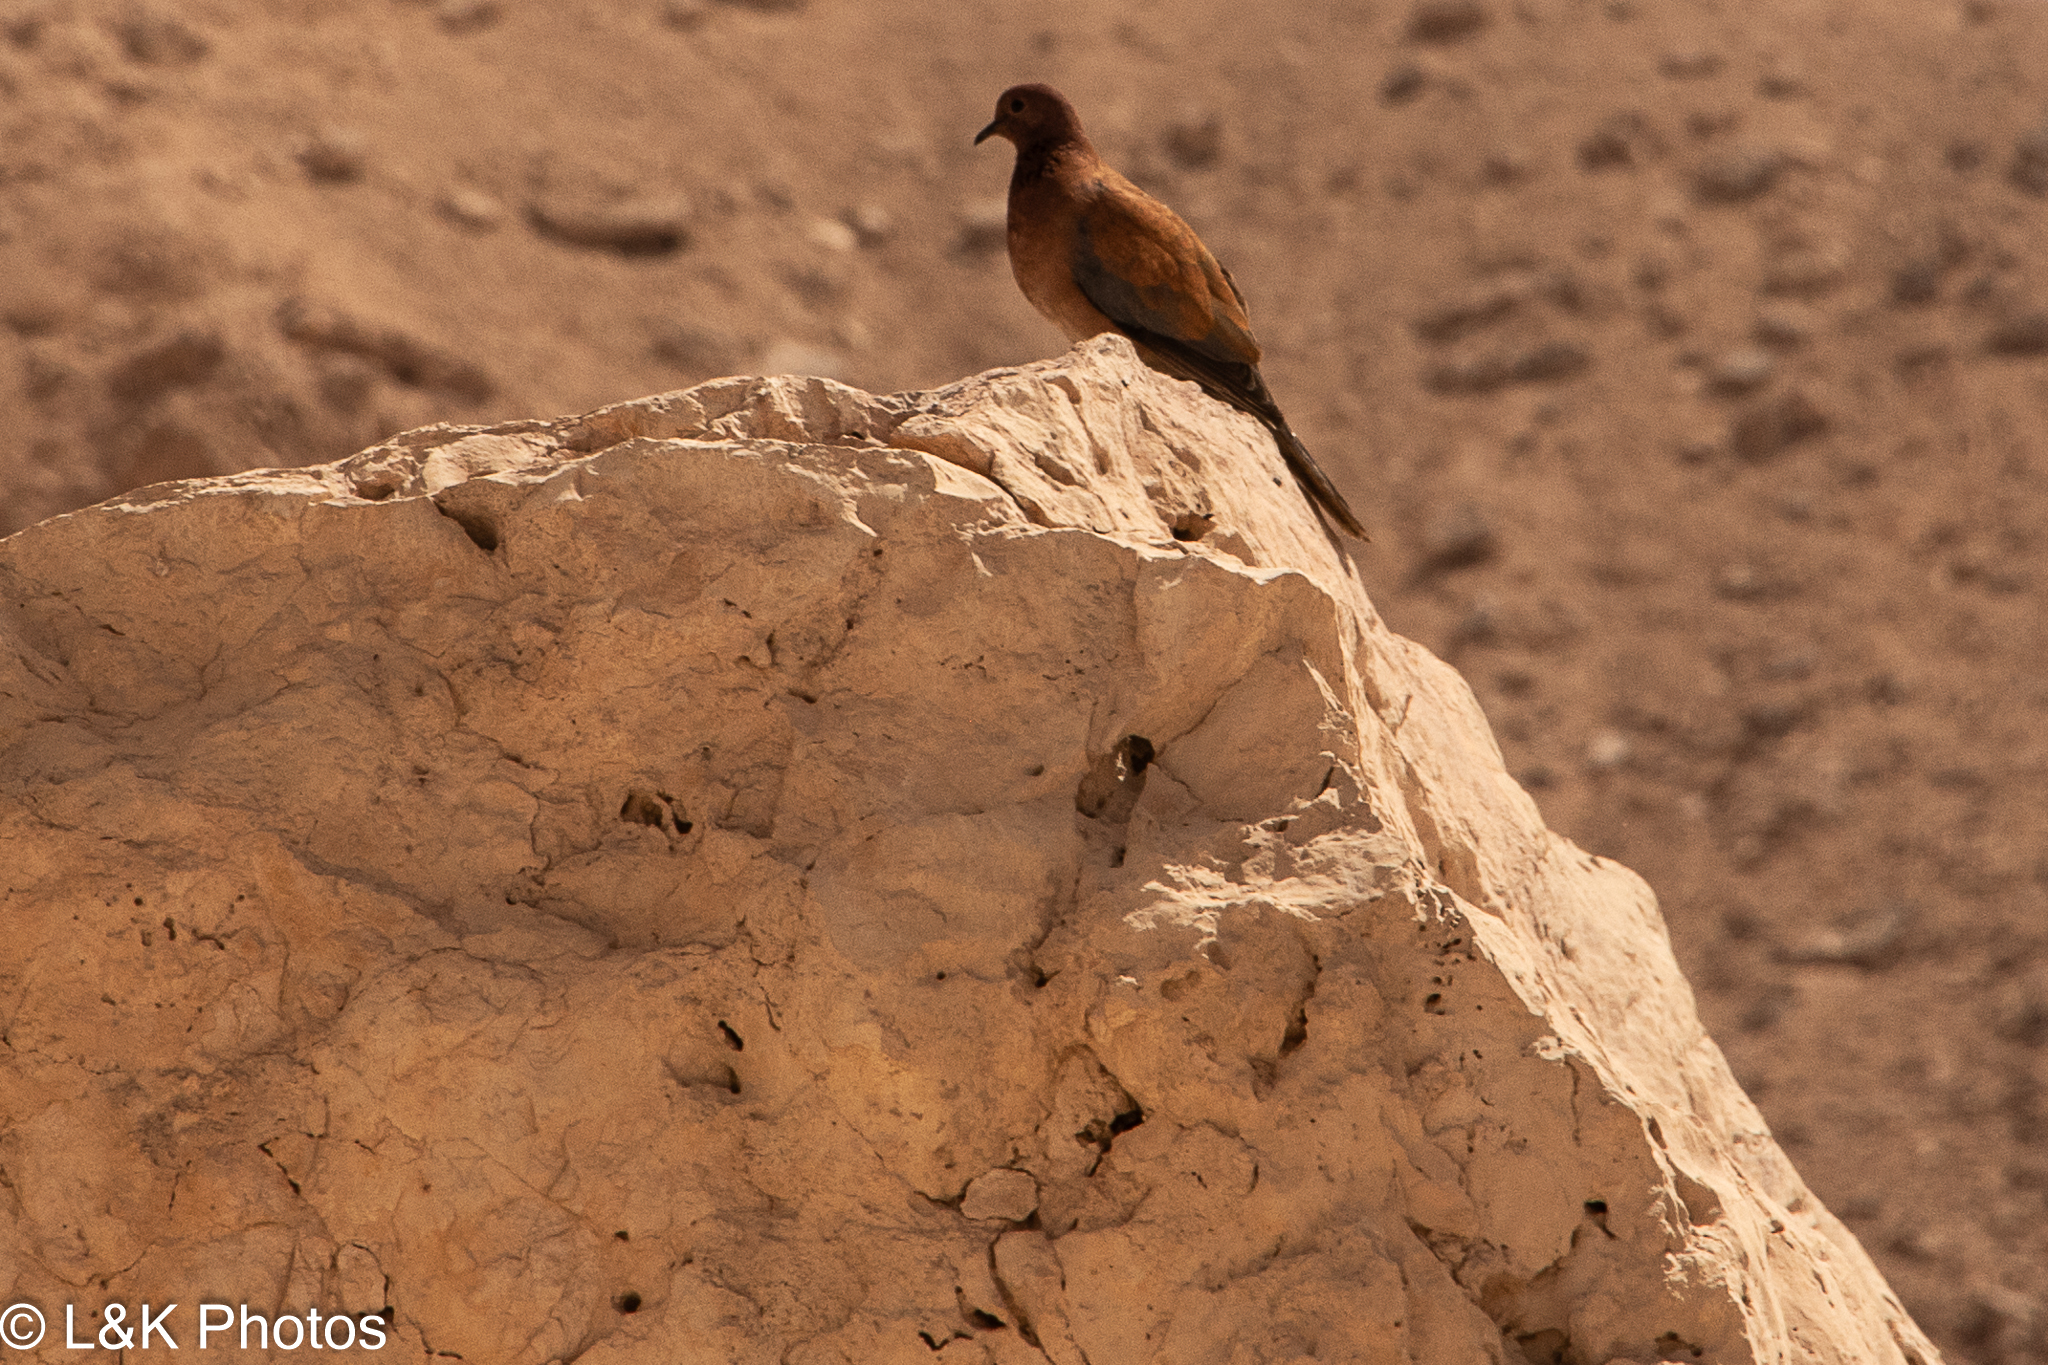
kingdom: Animalia
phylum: Chordata
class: Aves
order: Columbiformes
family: Columbidae
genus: Spilopelia
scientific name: Spilopelia senegalensis
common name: Laughing dove
